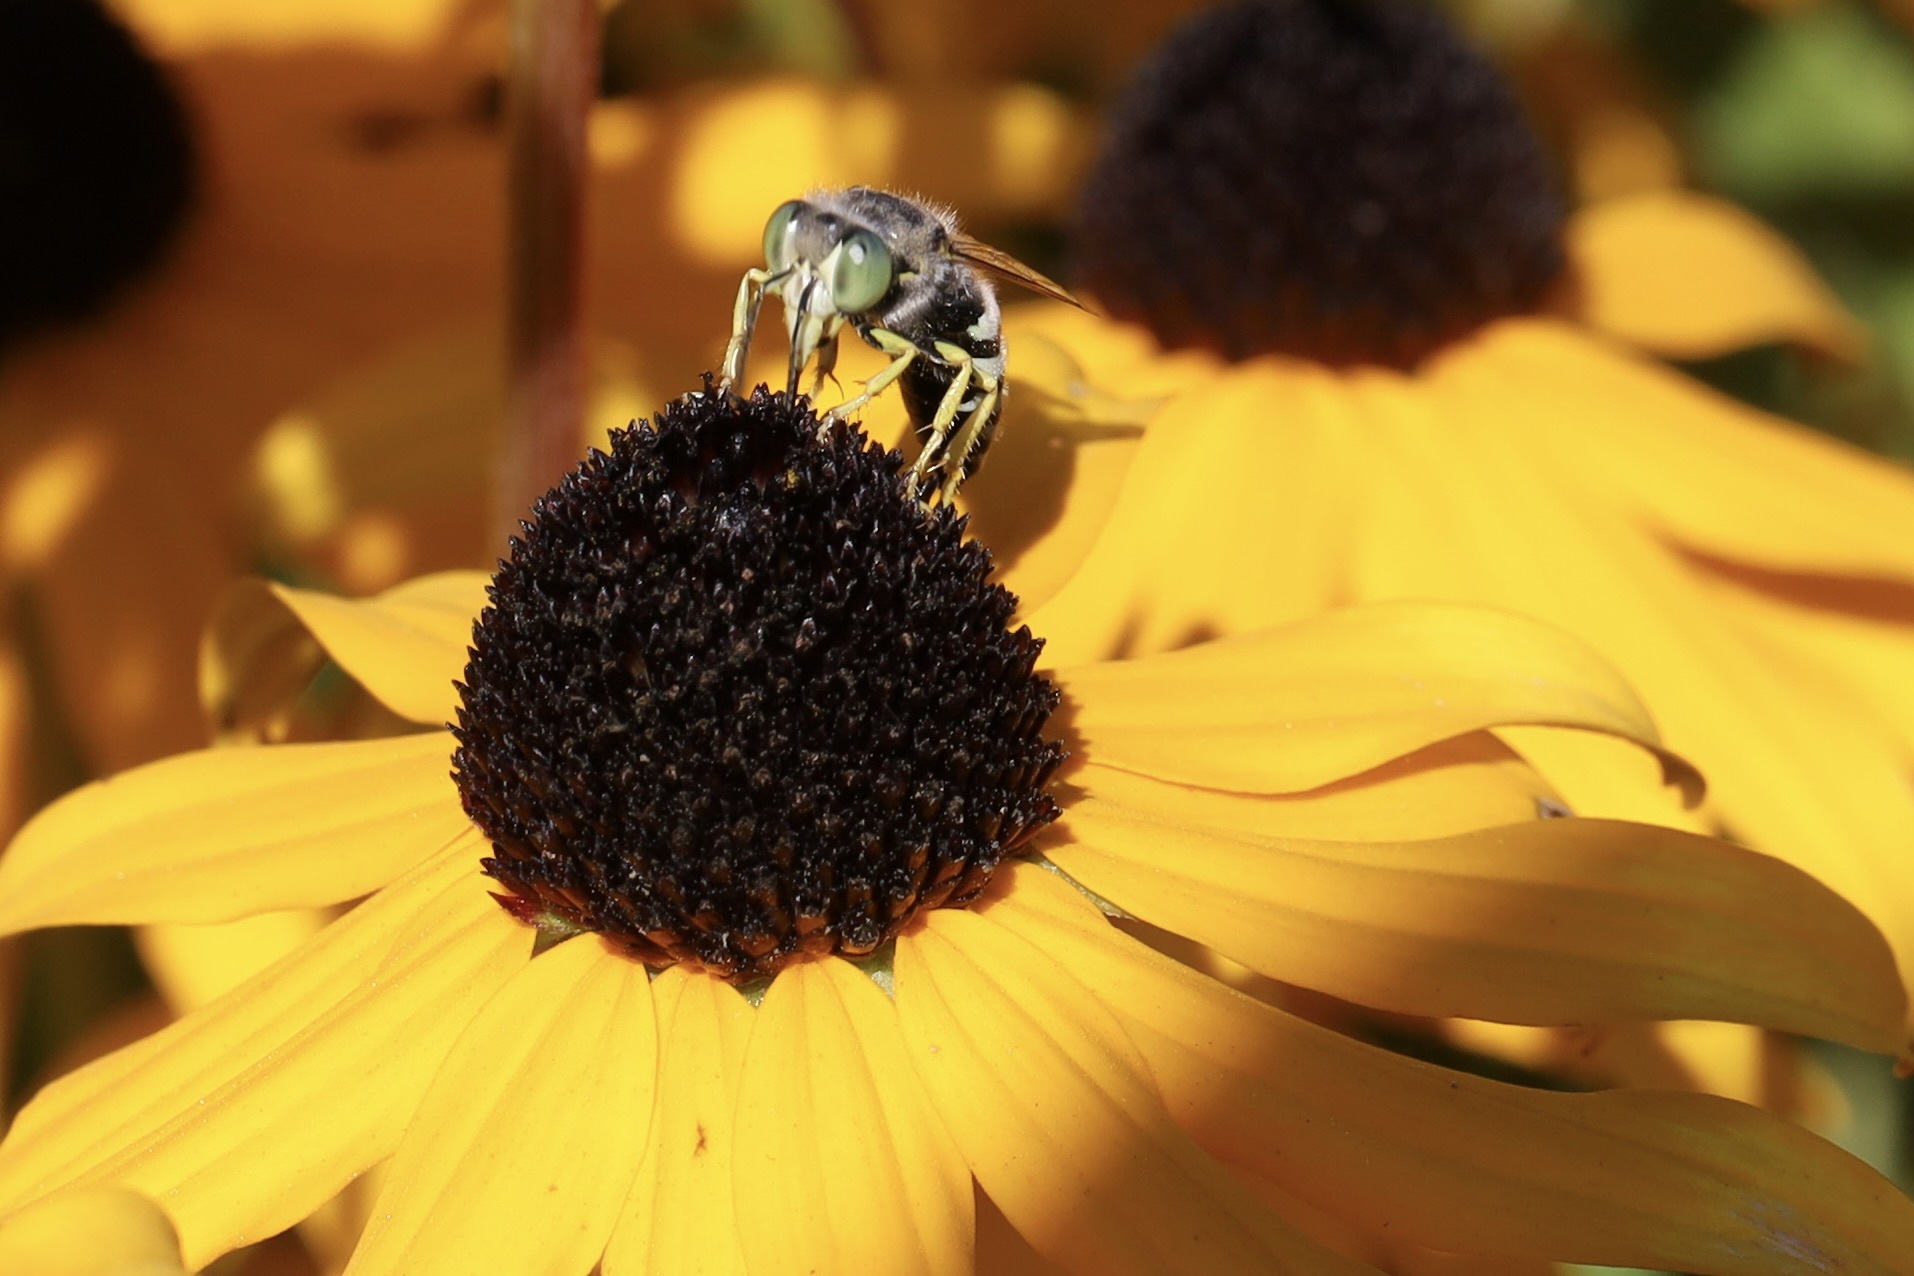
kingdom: Animalia
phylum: Arthropoda
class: Insecta
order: Hymenoptera
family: Crabronidae
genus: Bembix
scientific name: Bembix americana
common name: American sand wasp
